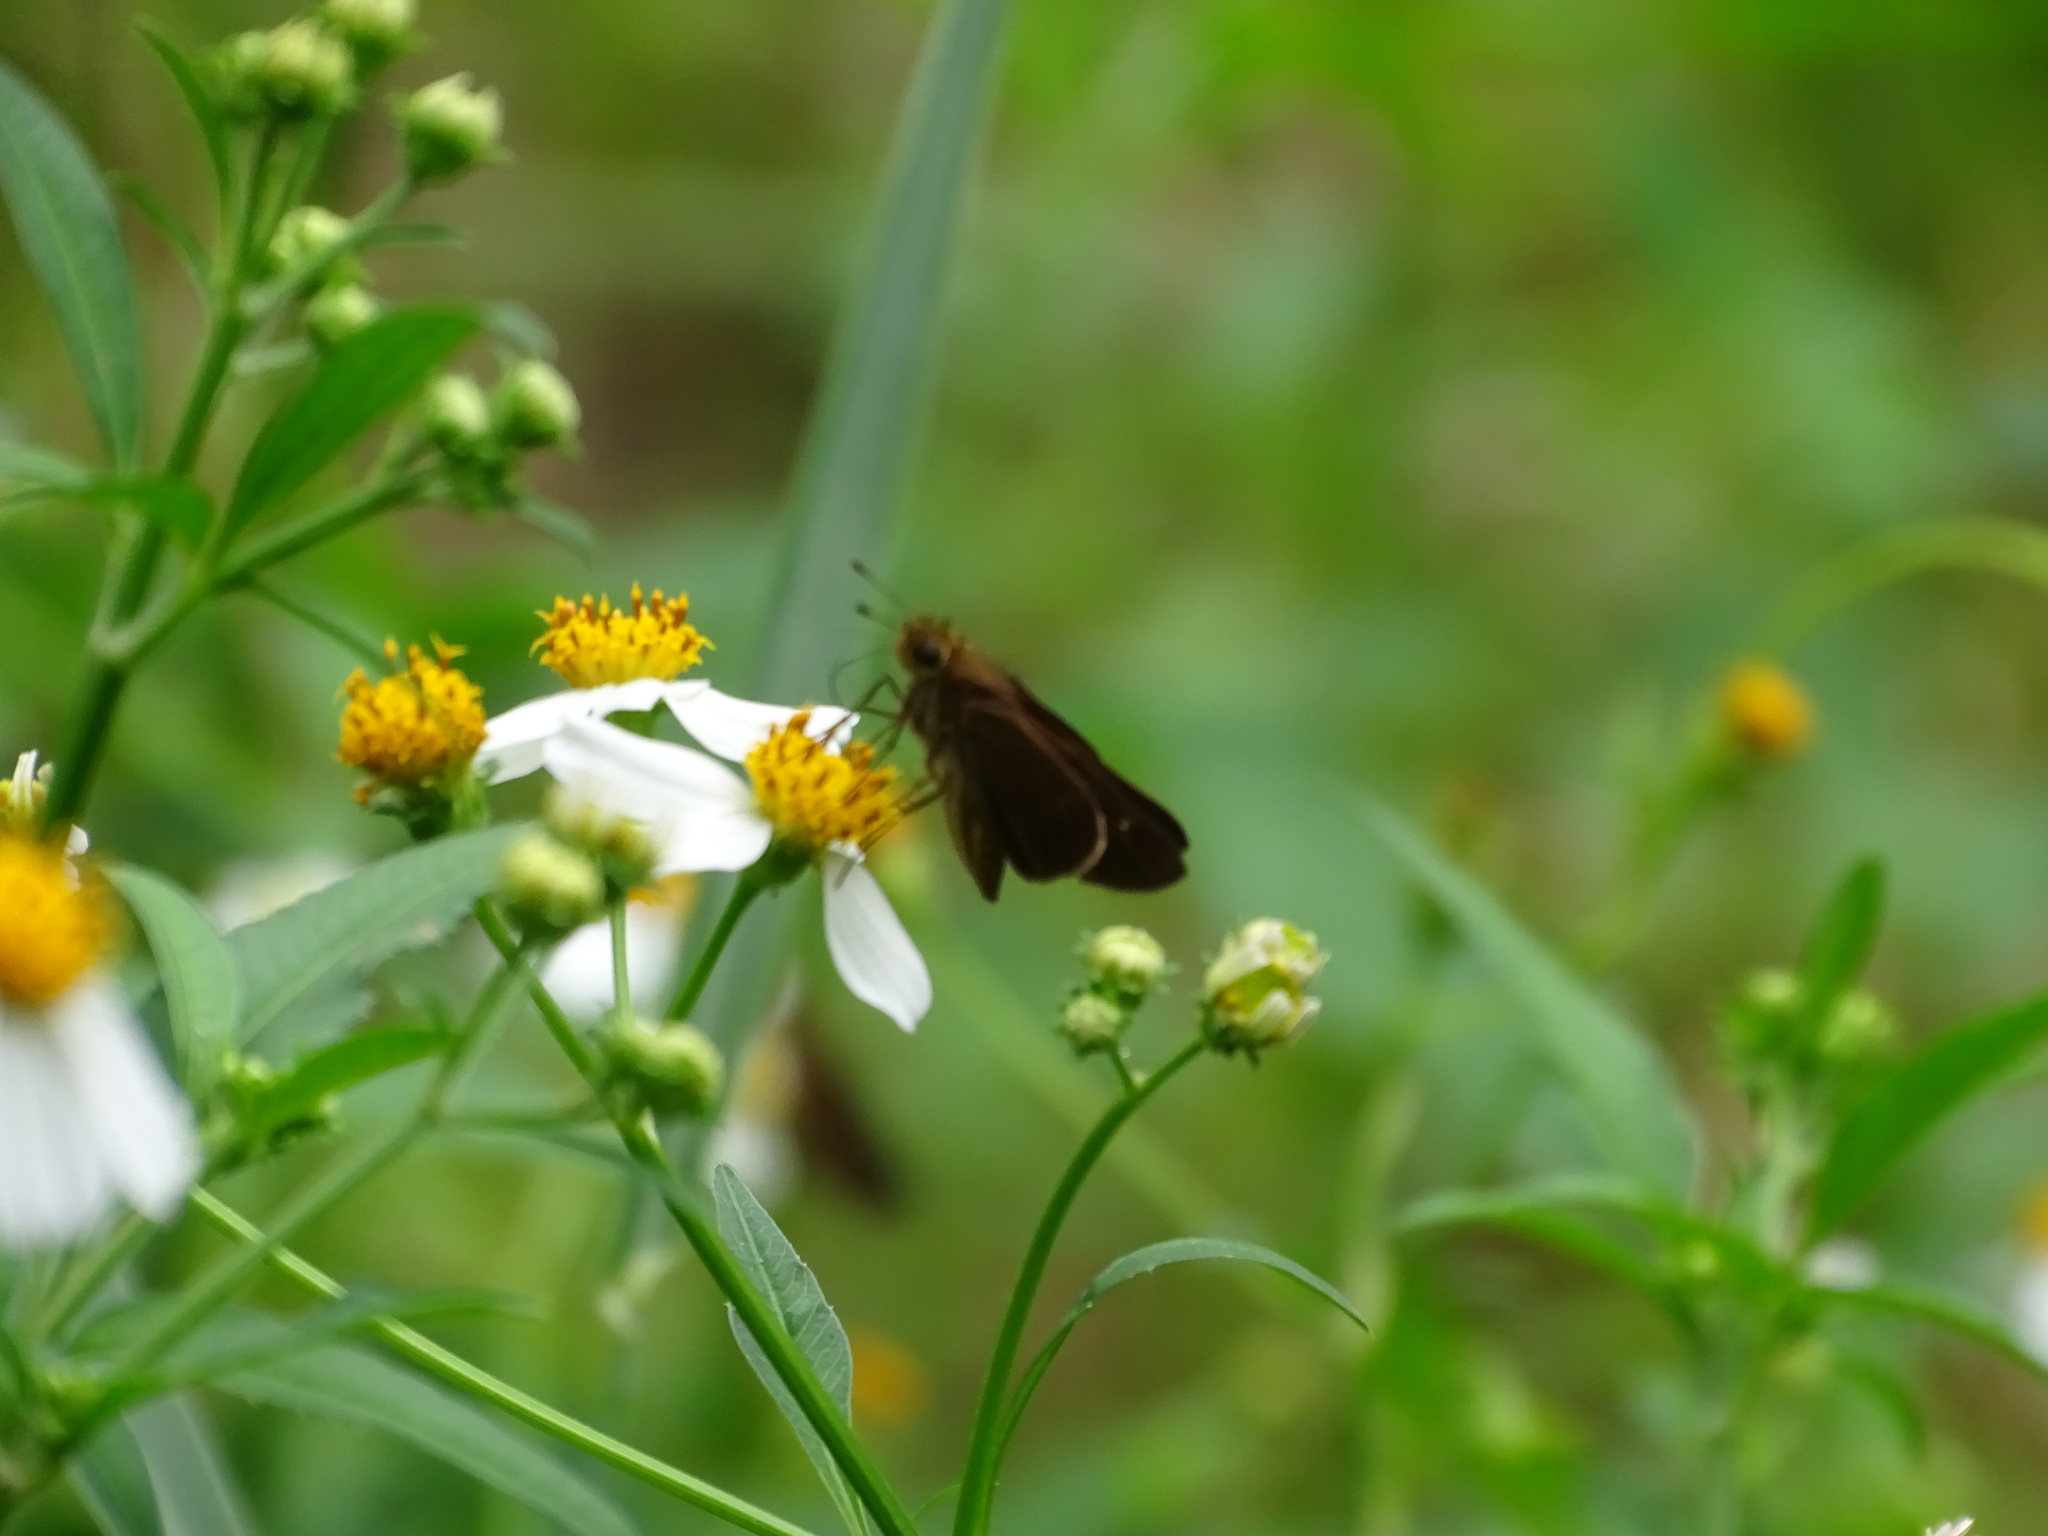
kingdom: Animalia
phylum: Arthropoda
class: Insecta
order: Lepidoptera
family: Hesperiidae
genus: Panoquina
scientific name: Panoquina ocola
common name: Ocola skipper
